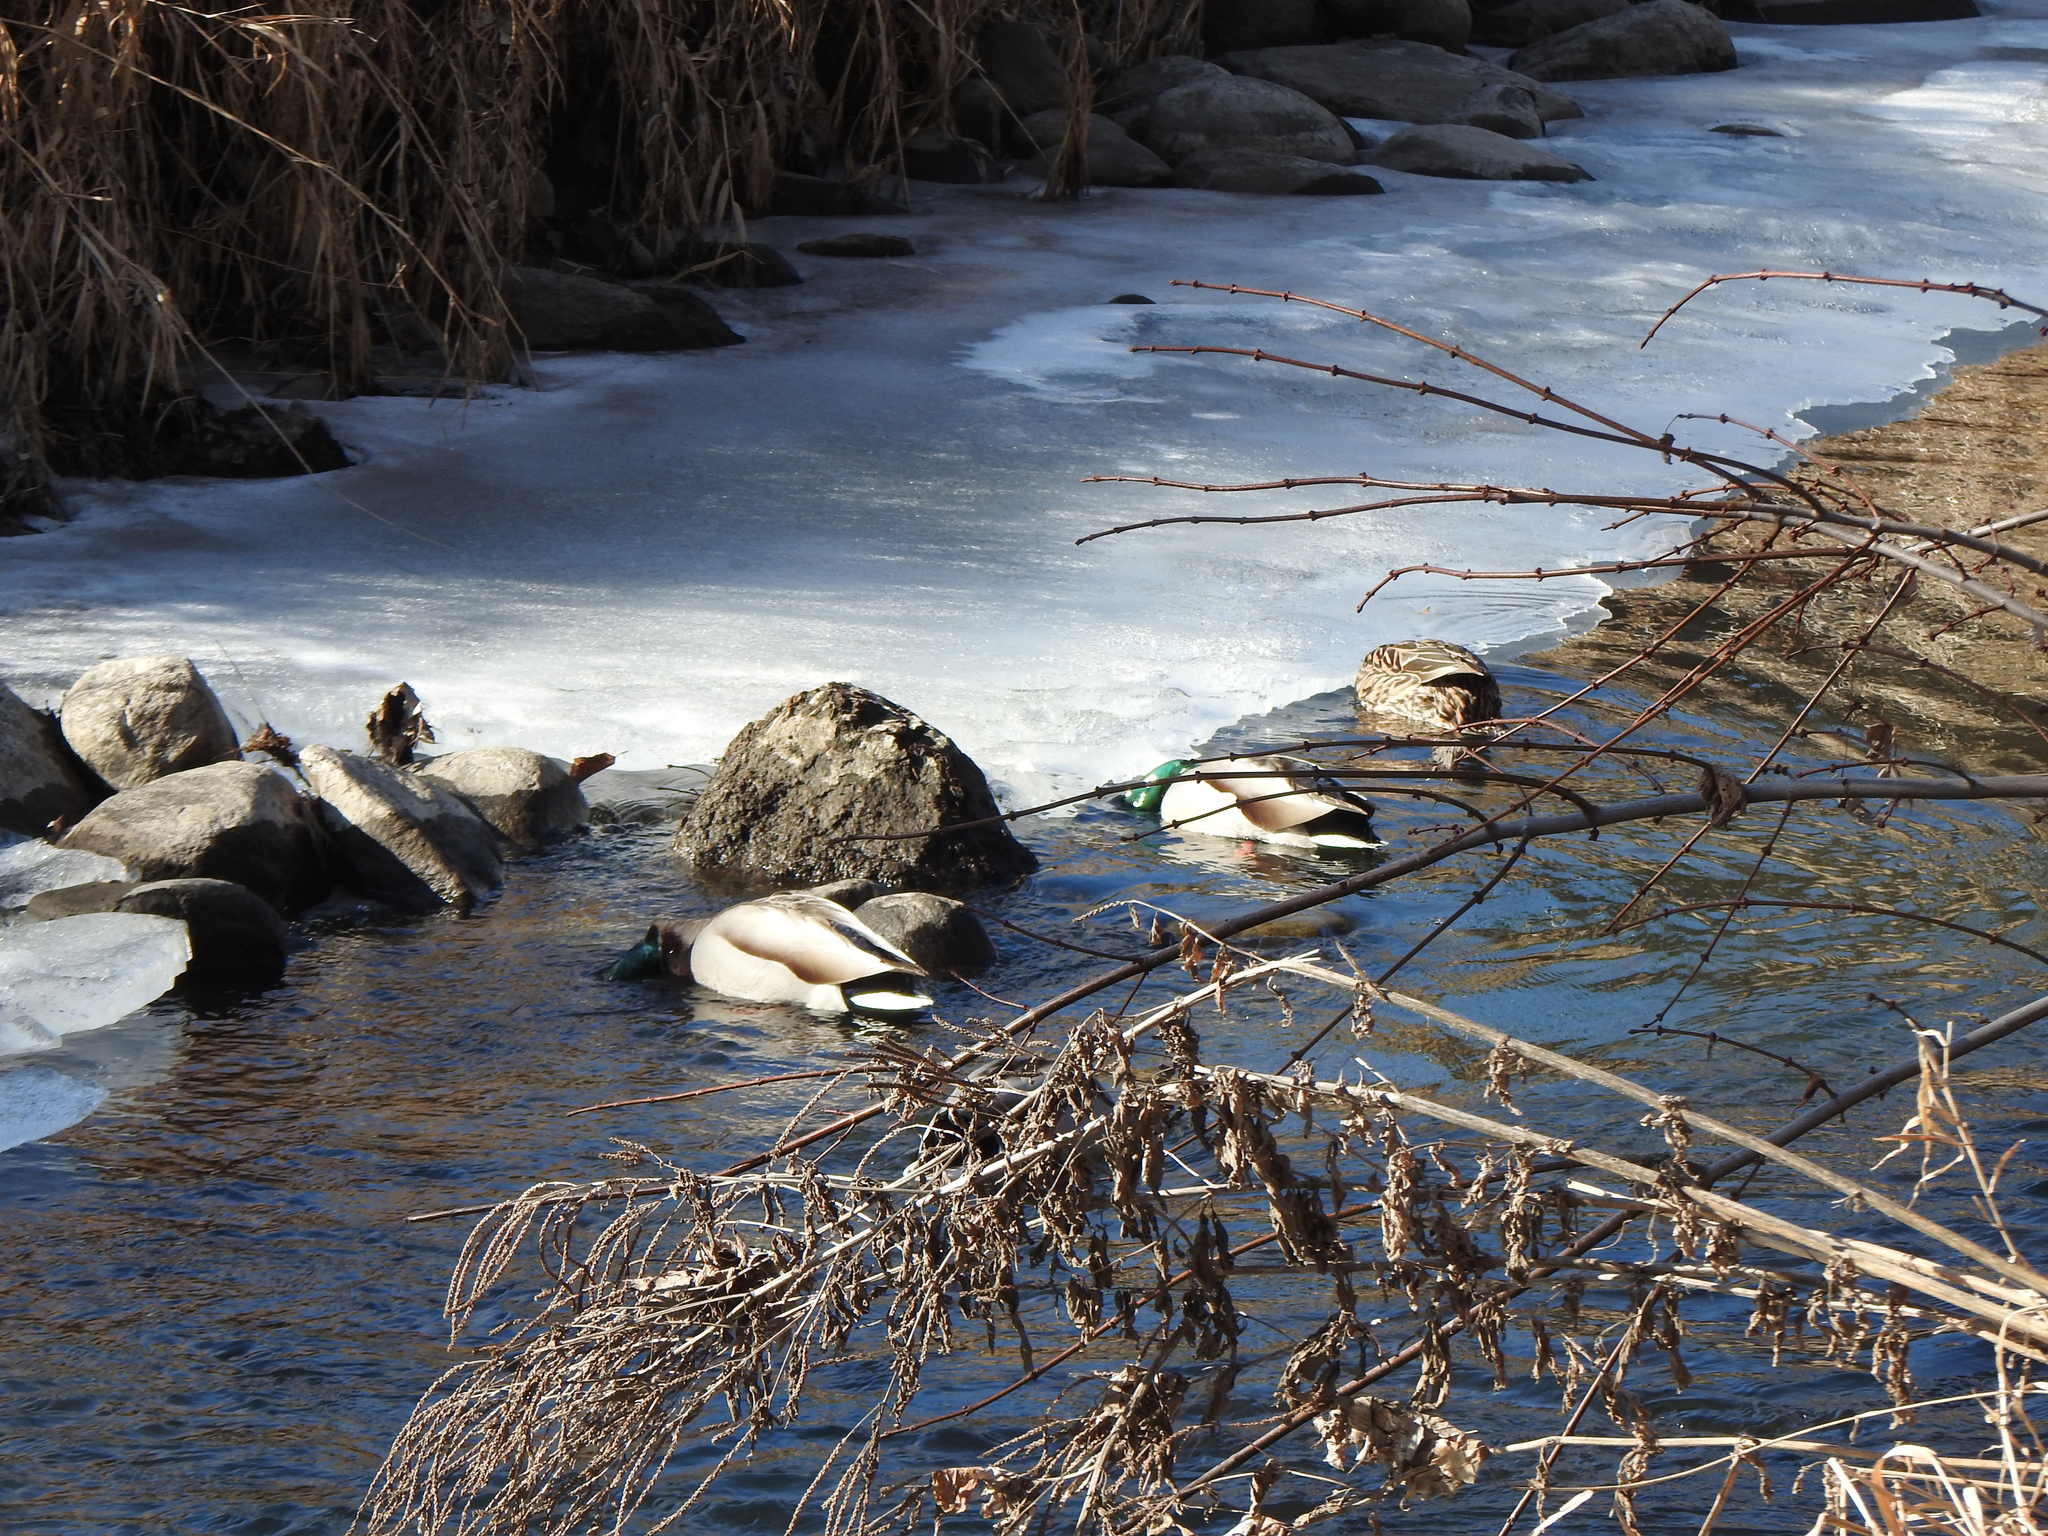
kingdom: Animalia
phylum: Chordata
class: Aves
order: Anseriformes
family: Anatidae
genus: Anas
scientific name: Anas platyrhynchos
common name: Mallard
